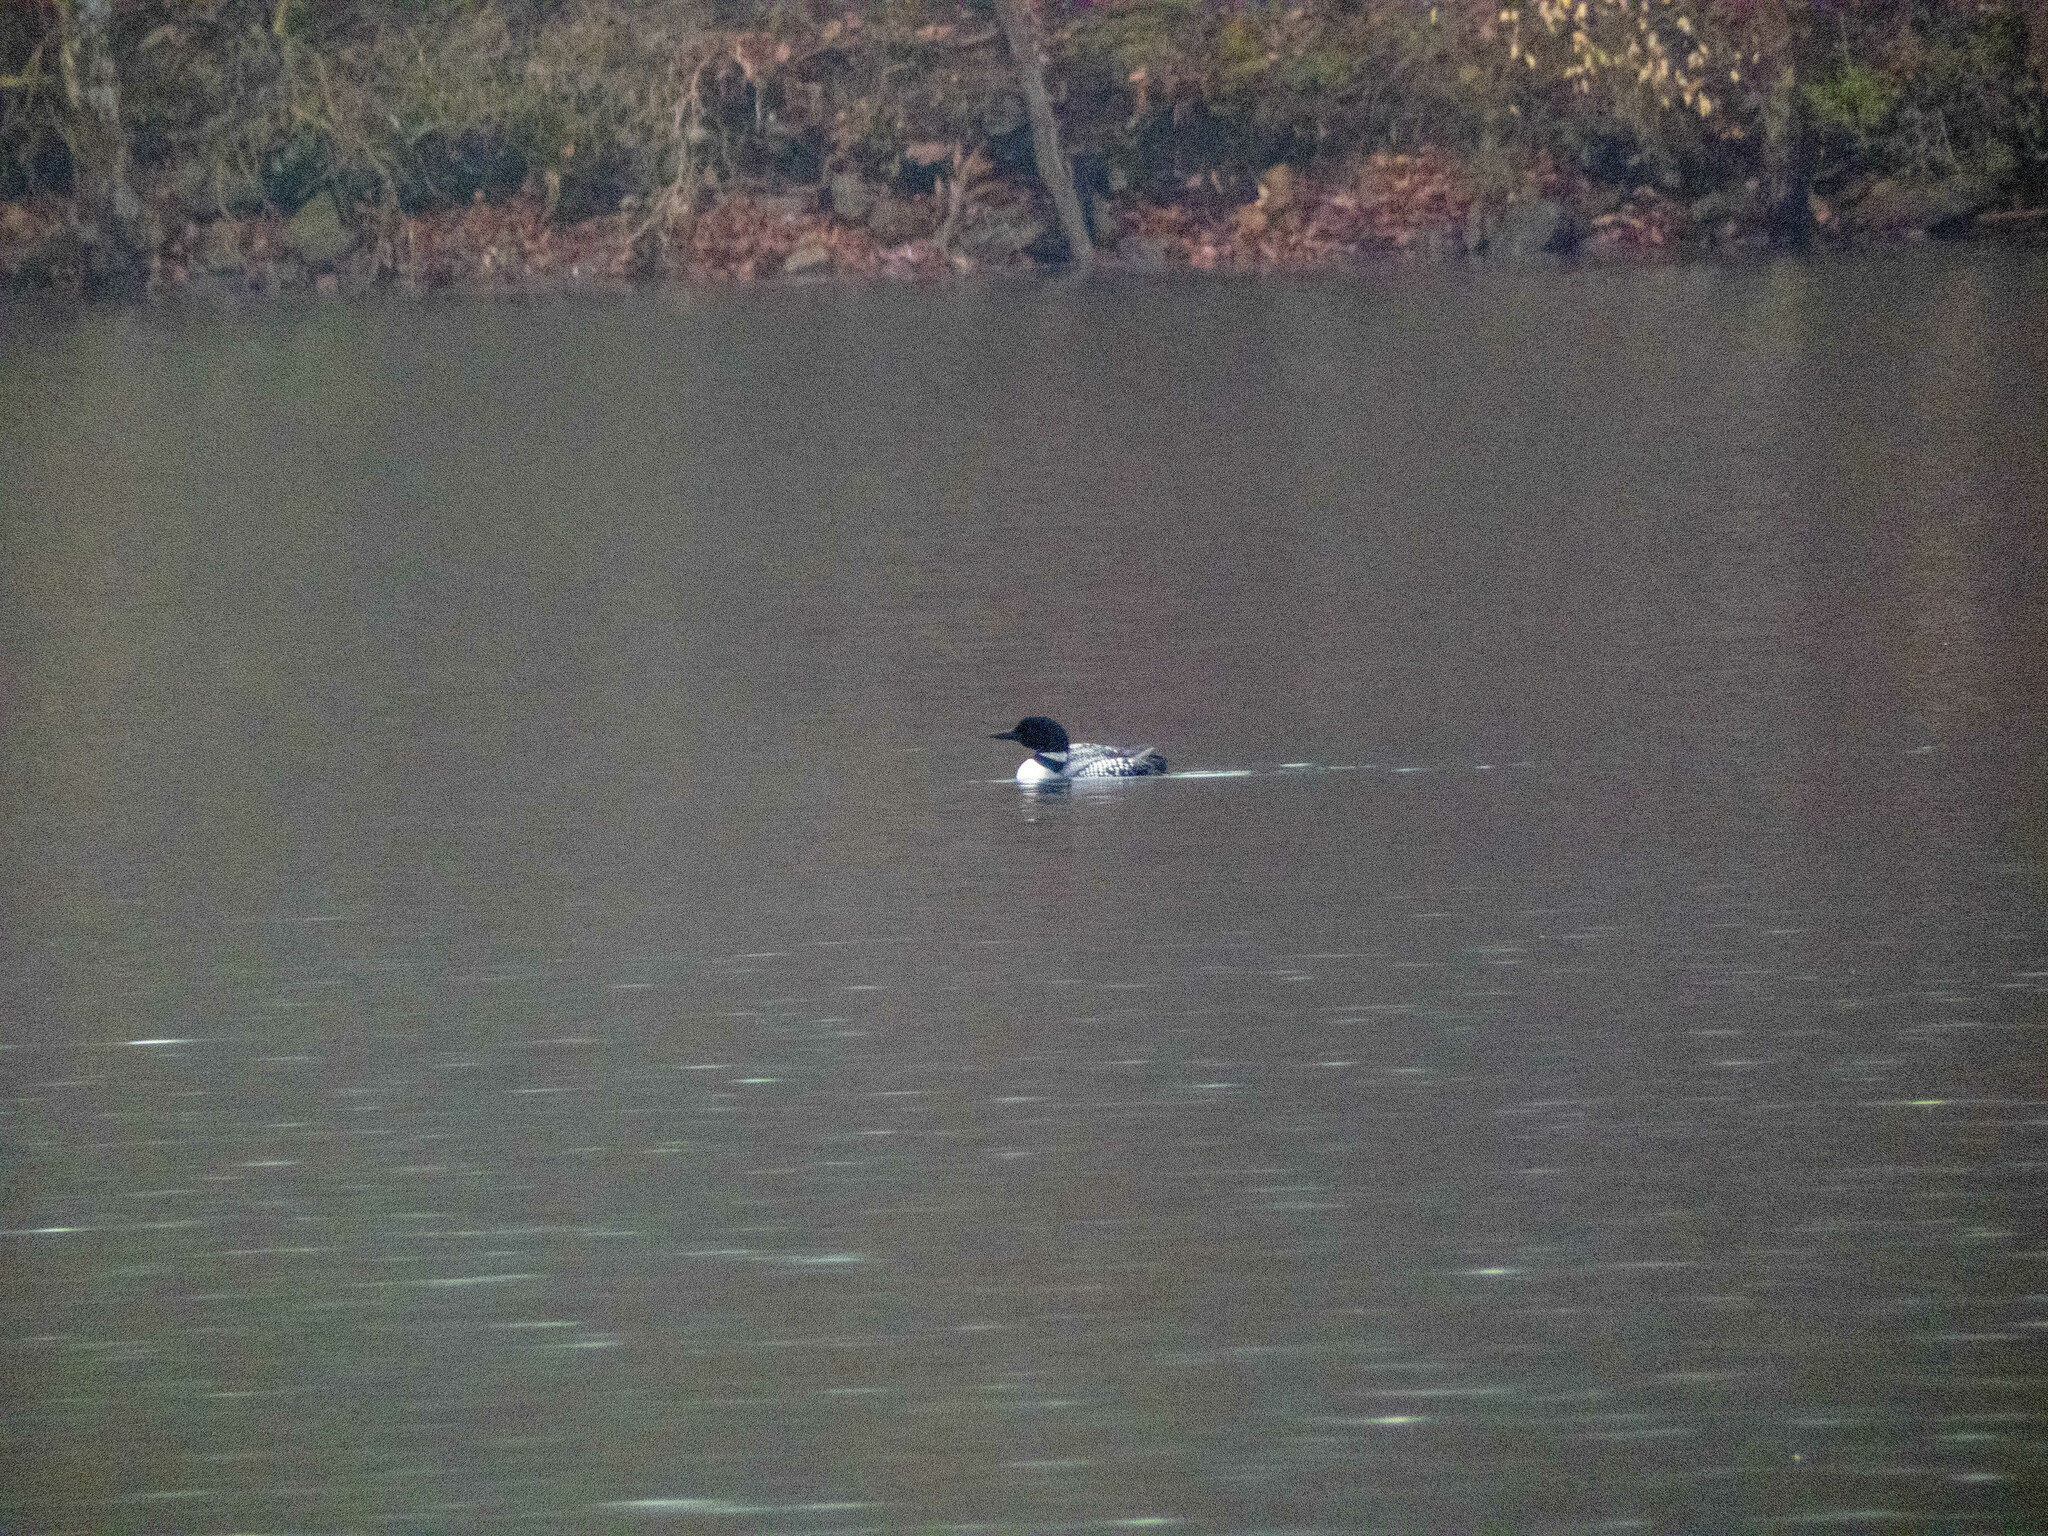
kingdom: Animalia
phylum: Chordata
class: Aves
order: Gaviiformes
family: Gaviidae
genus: Gavia
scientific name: Gavia immer
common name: Common loon
